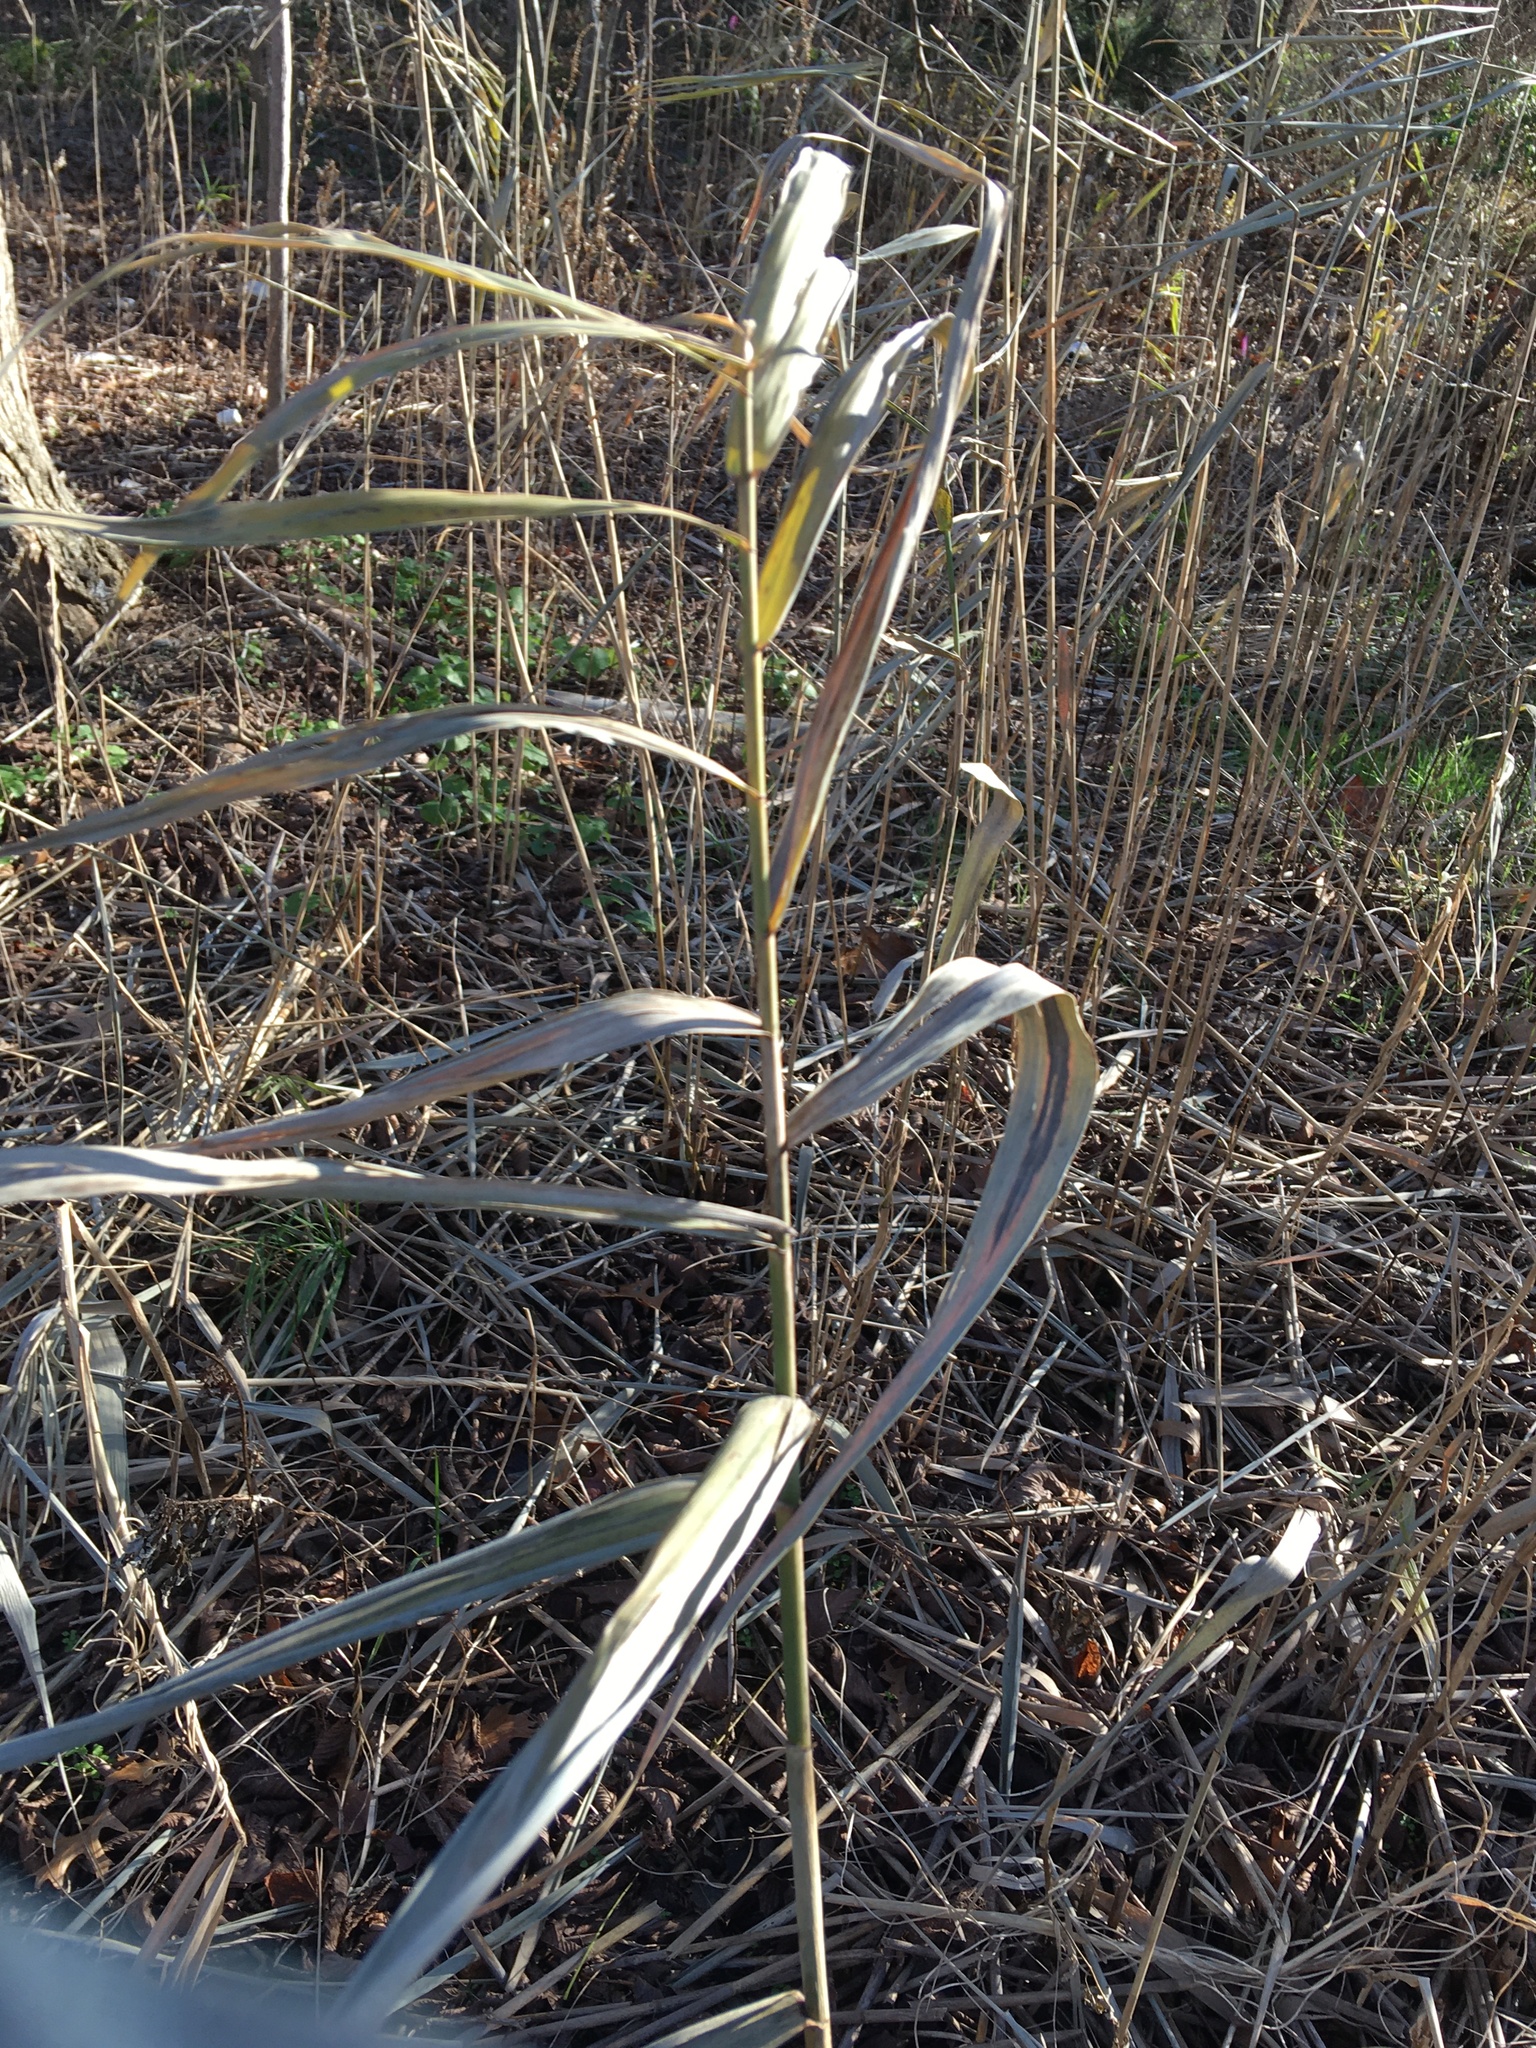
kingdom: Plantae
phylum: Tracheophyta
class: Liliopsida
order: Poales
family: Poaceae
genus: Phragmites
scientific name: Phragmites australis
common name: Common reed
